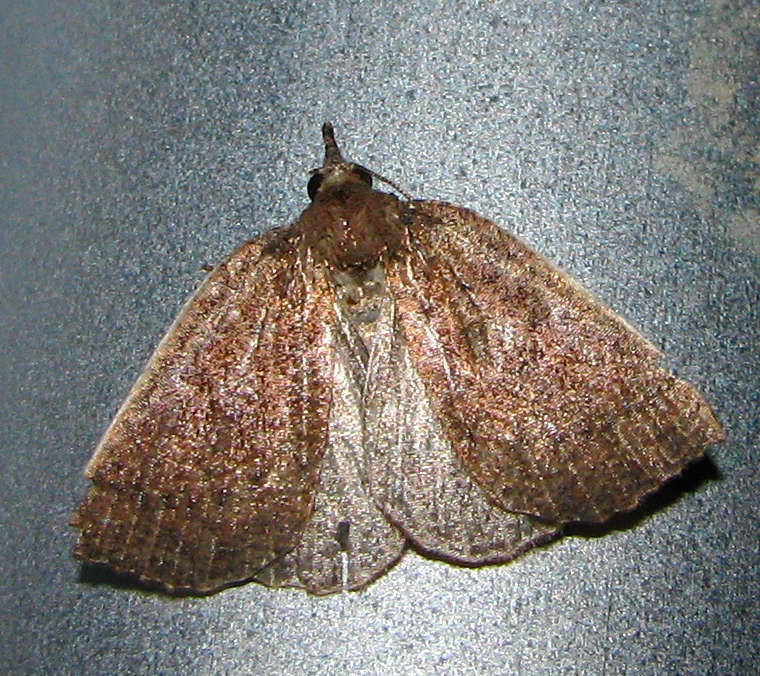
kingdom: Animalia
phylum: Arthropoda
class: Insecta
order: Lepidoptera
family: Geometridae
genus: Authaemon
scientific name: Authaemon stenonipha
